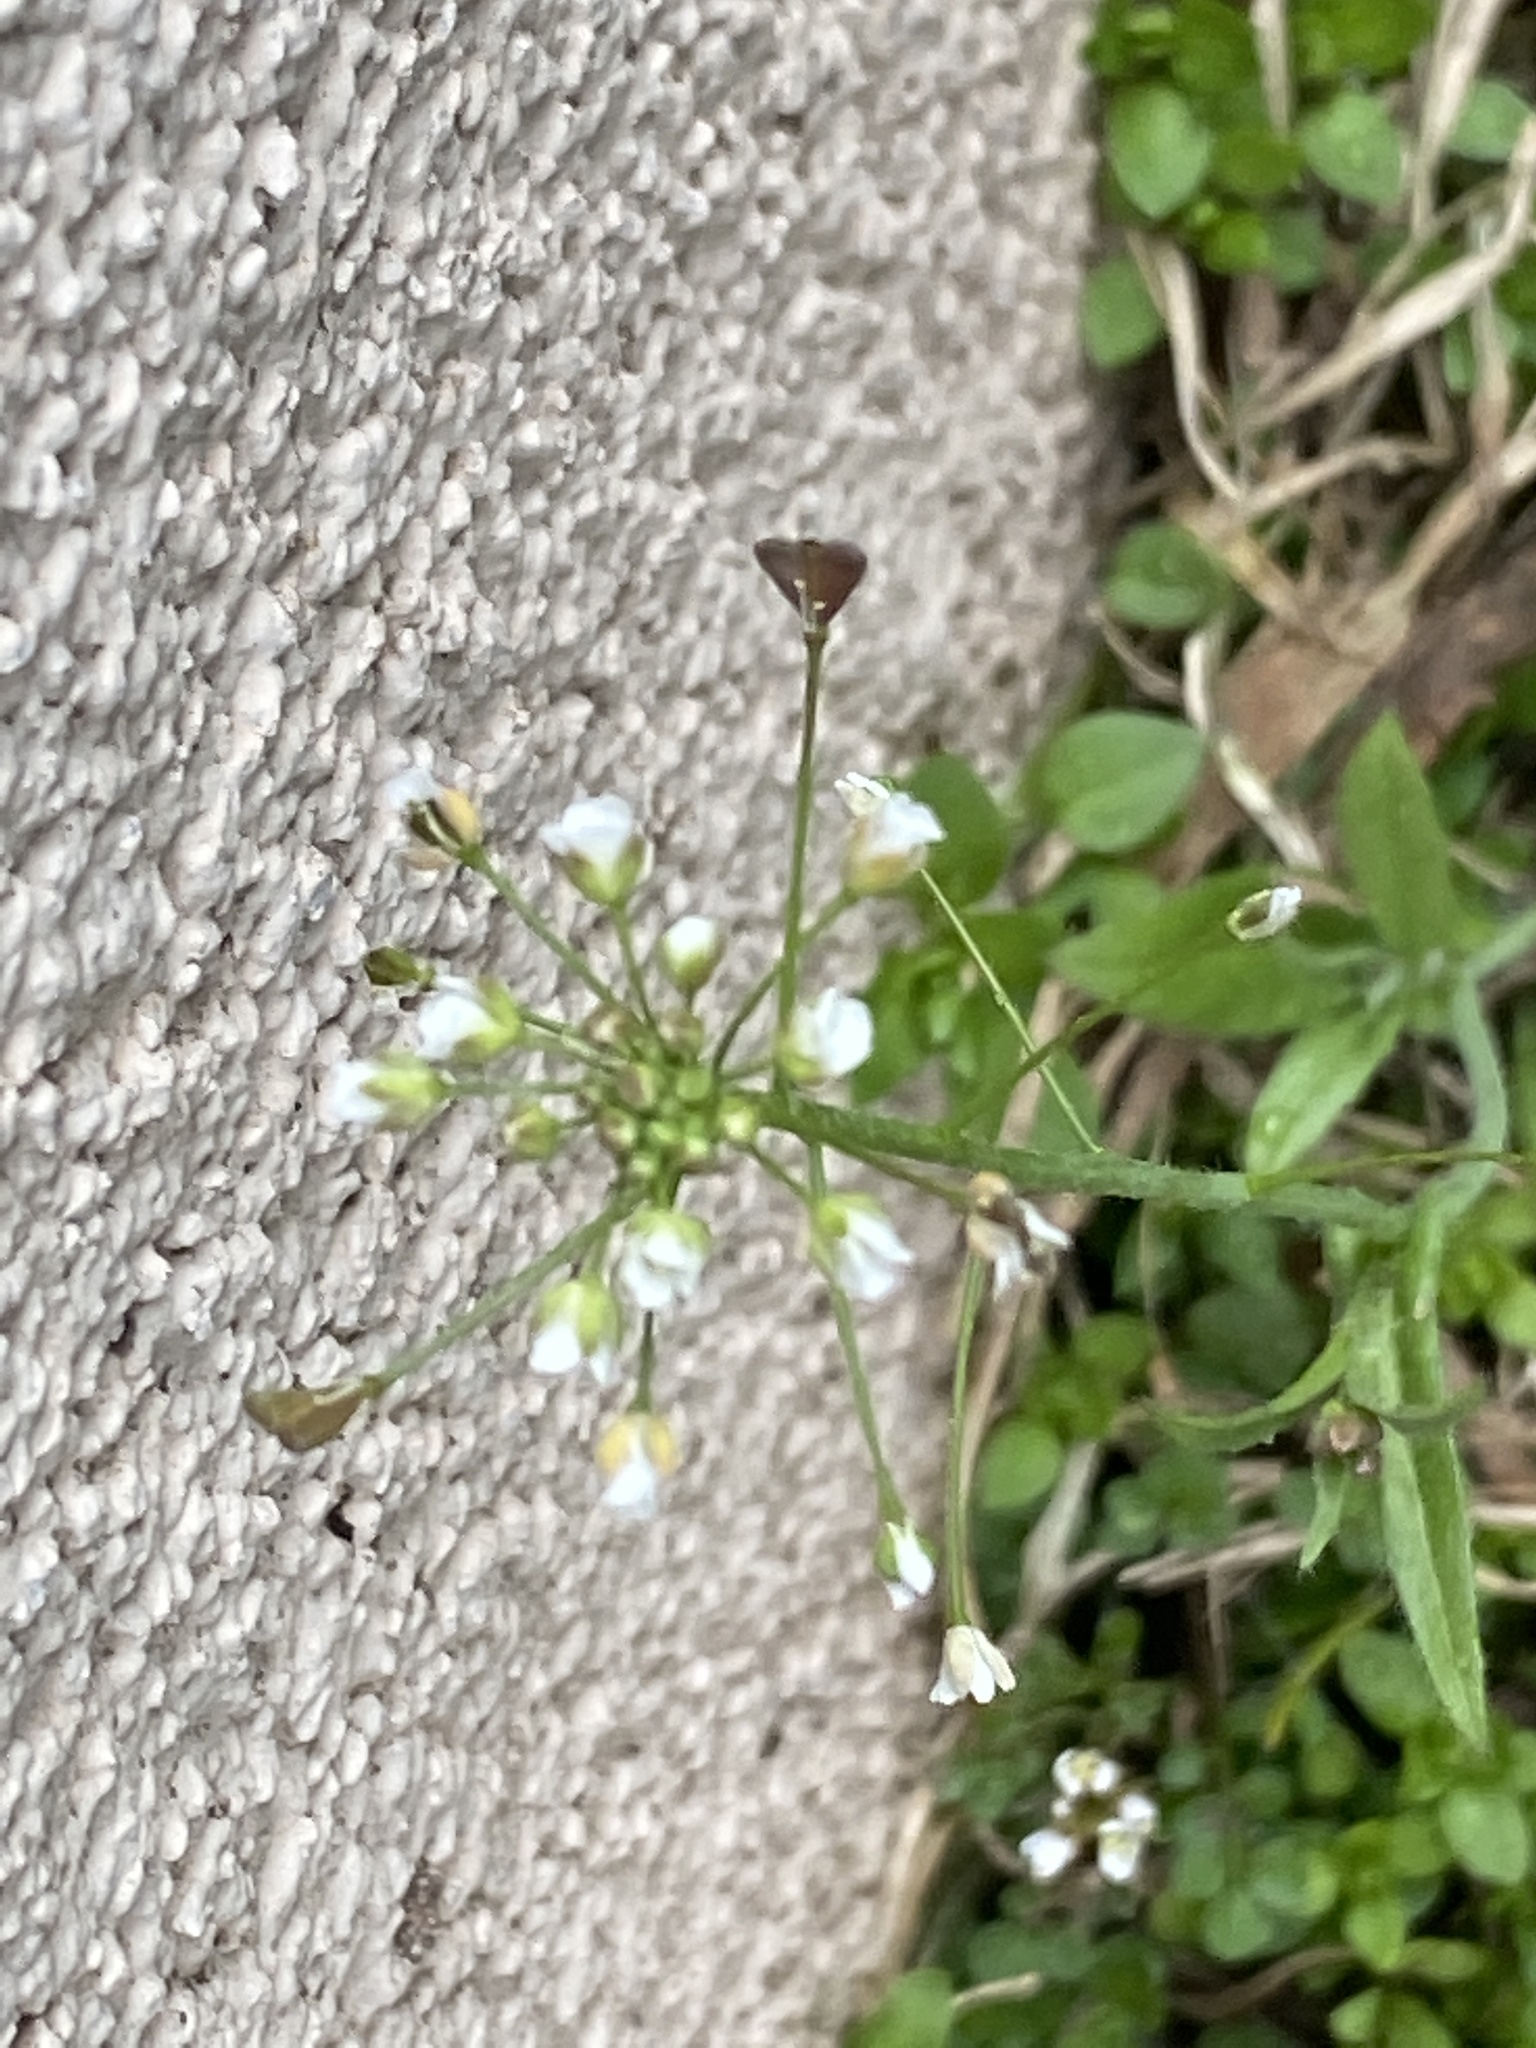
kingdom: Plantae
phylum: Tracheophyta
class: Magnoliopsida
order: Brassicales
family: Brassicaceae
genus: Capsella
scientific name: Capsella bursa-pastoris
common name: Shepherd's purse
